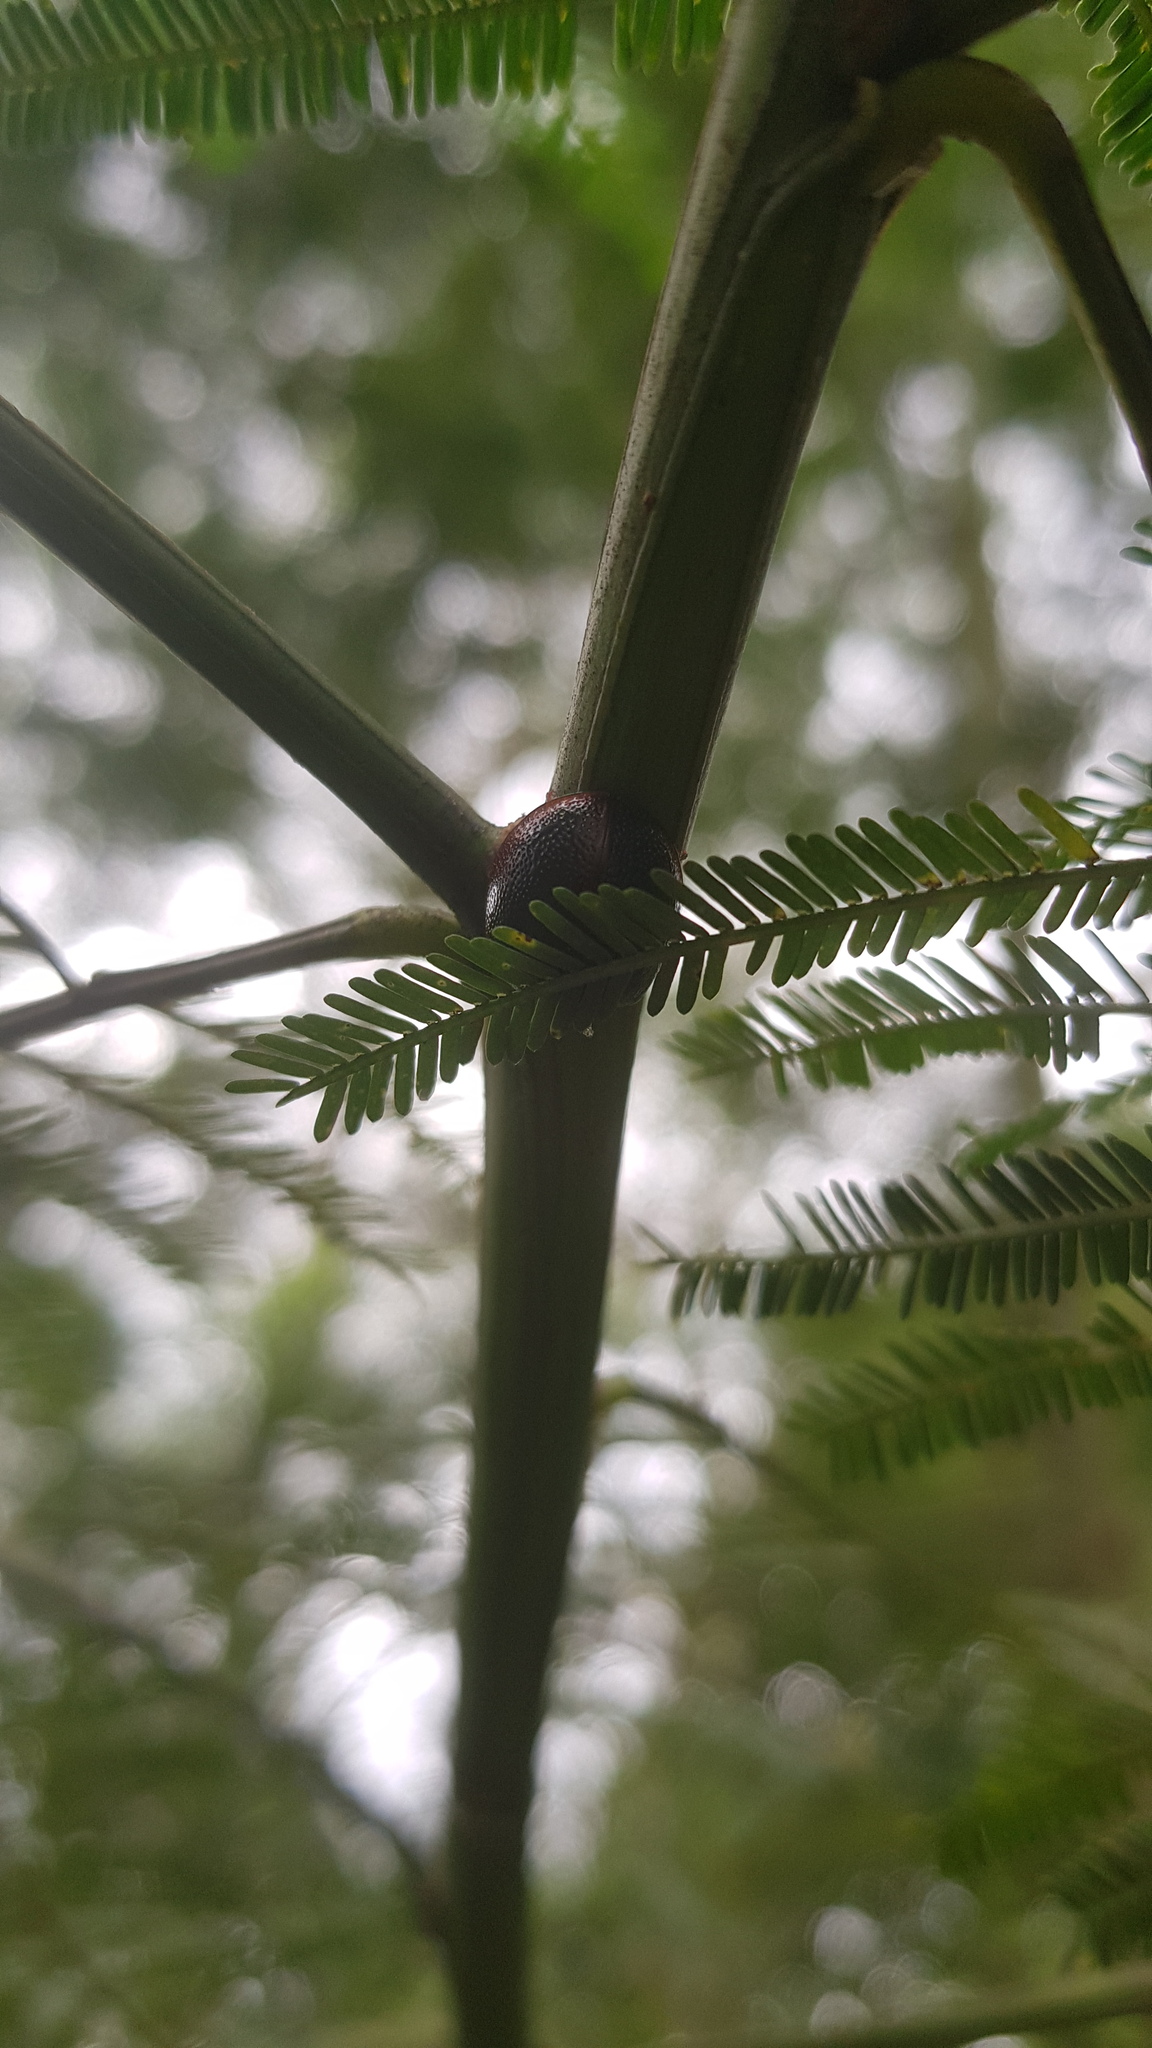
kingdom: Animalia
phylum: Arthropoda
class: Insecta
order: Coleoptera
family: Chrysomelidae
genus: Dicranosterna
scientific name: Dicranosterna
